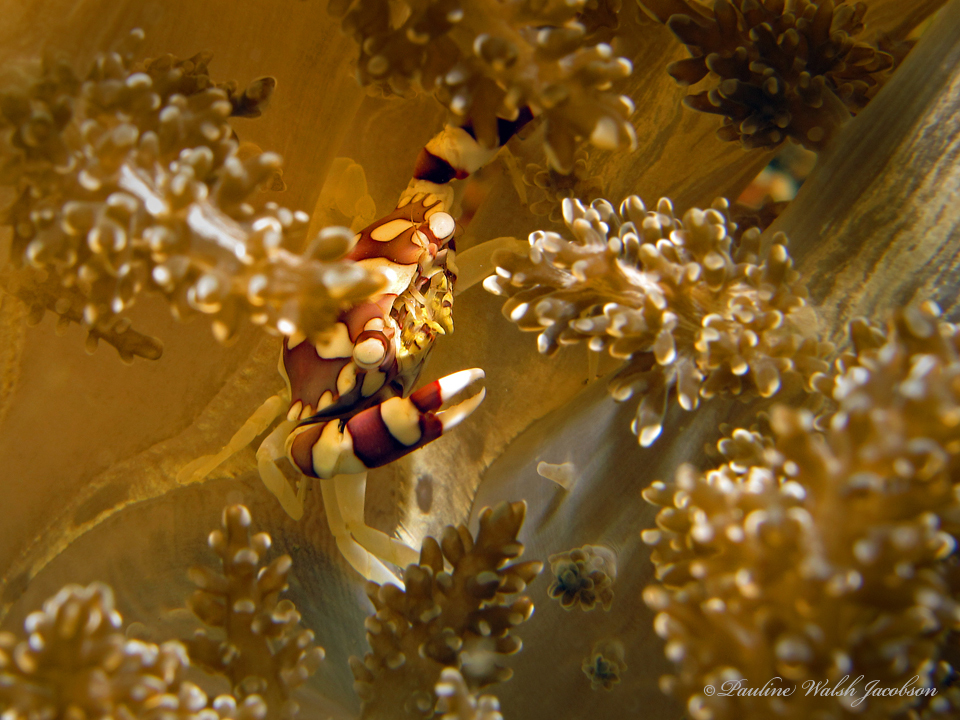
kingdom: Animalia
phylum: Arthropoda
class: Malacostraca
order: Decapoda
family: Portunidae
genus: Lissocarcinus
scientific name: Lissocarcinus laevis
